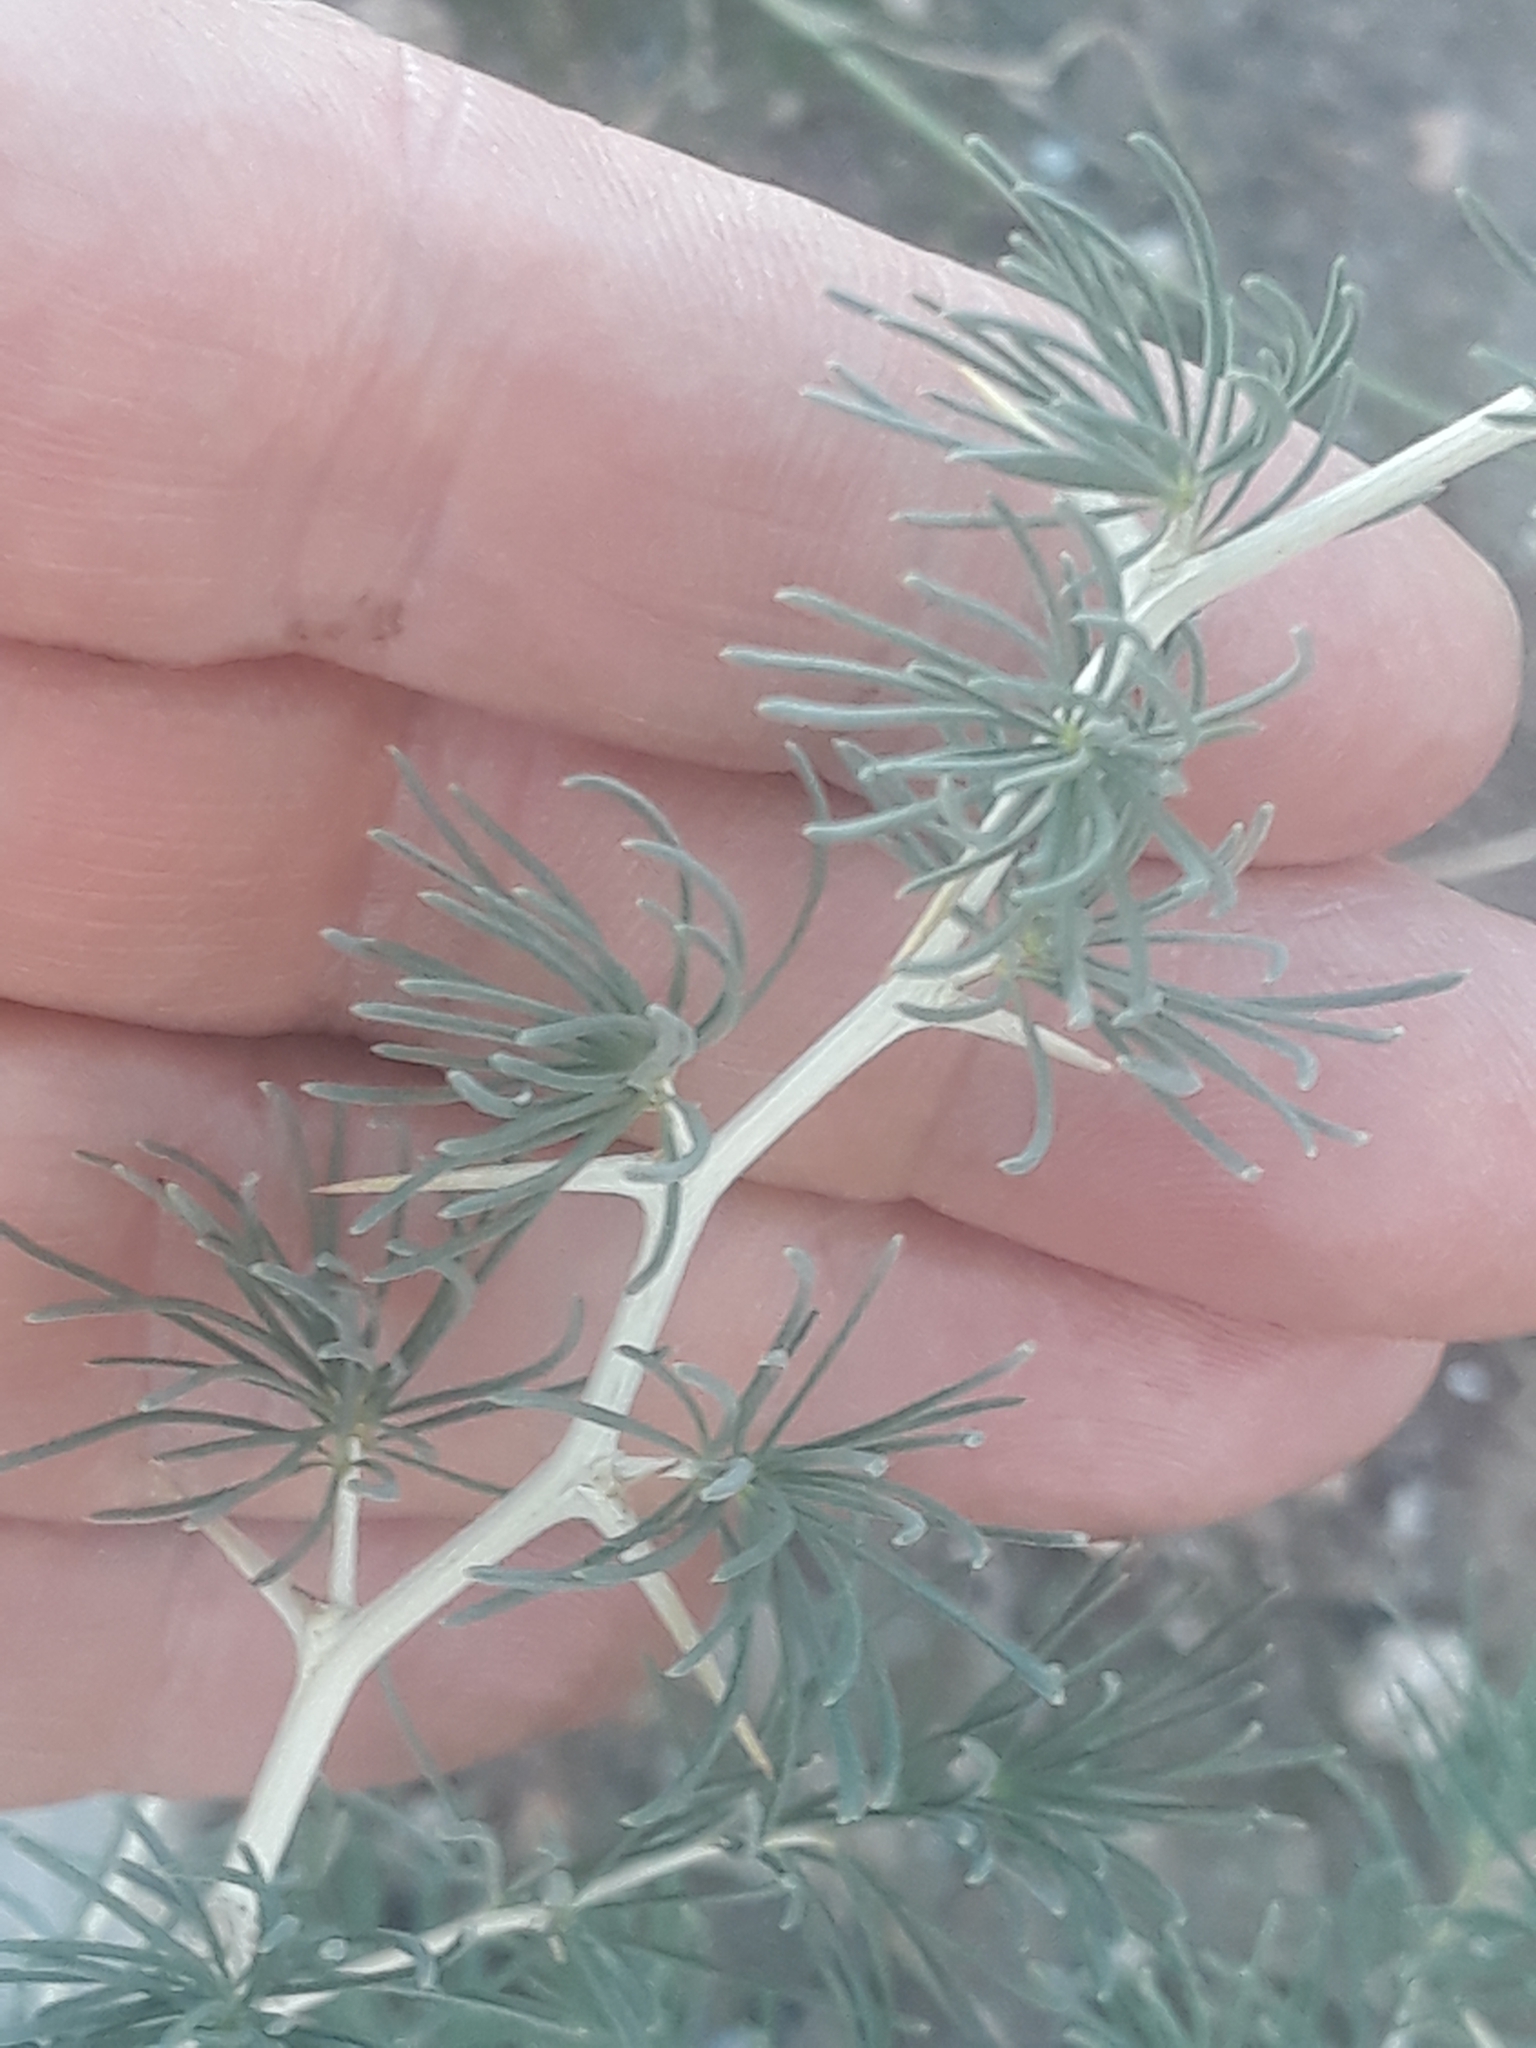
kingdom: Plantae
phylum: Tracheophyta
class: Liliopsida
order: Asparagales
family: Asparagaceae
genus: Asparagus
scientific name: Asparagus albus
